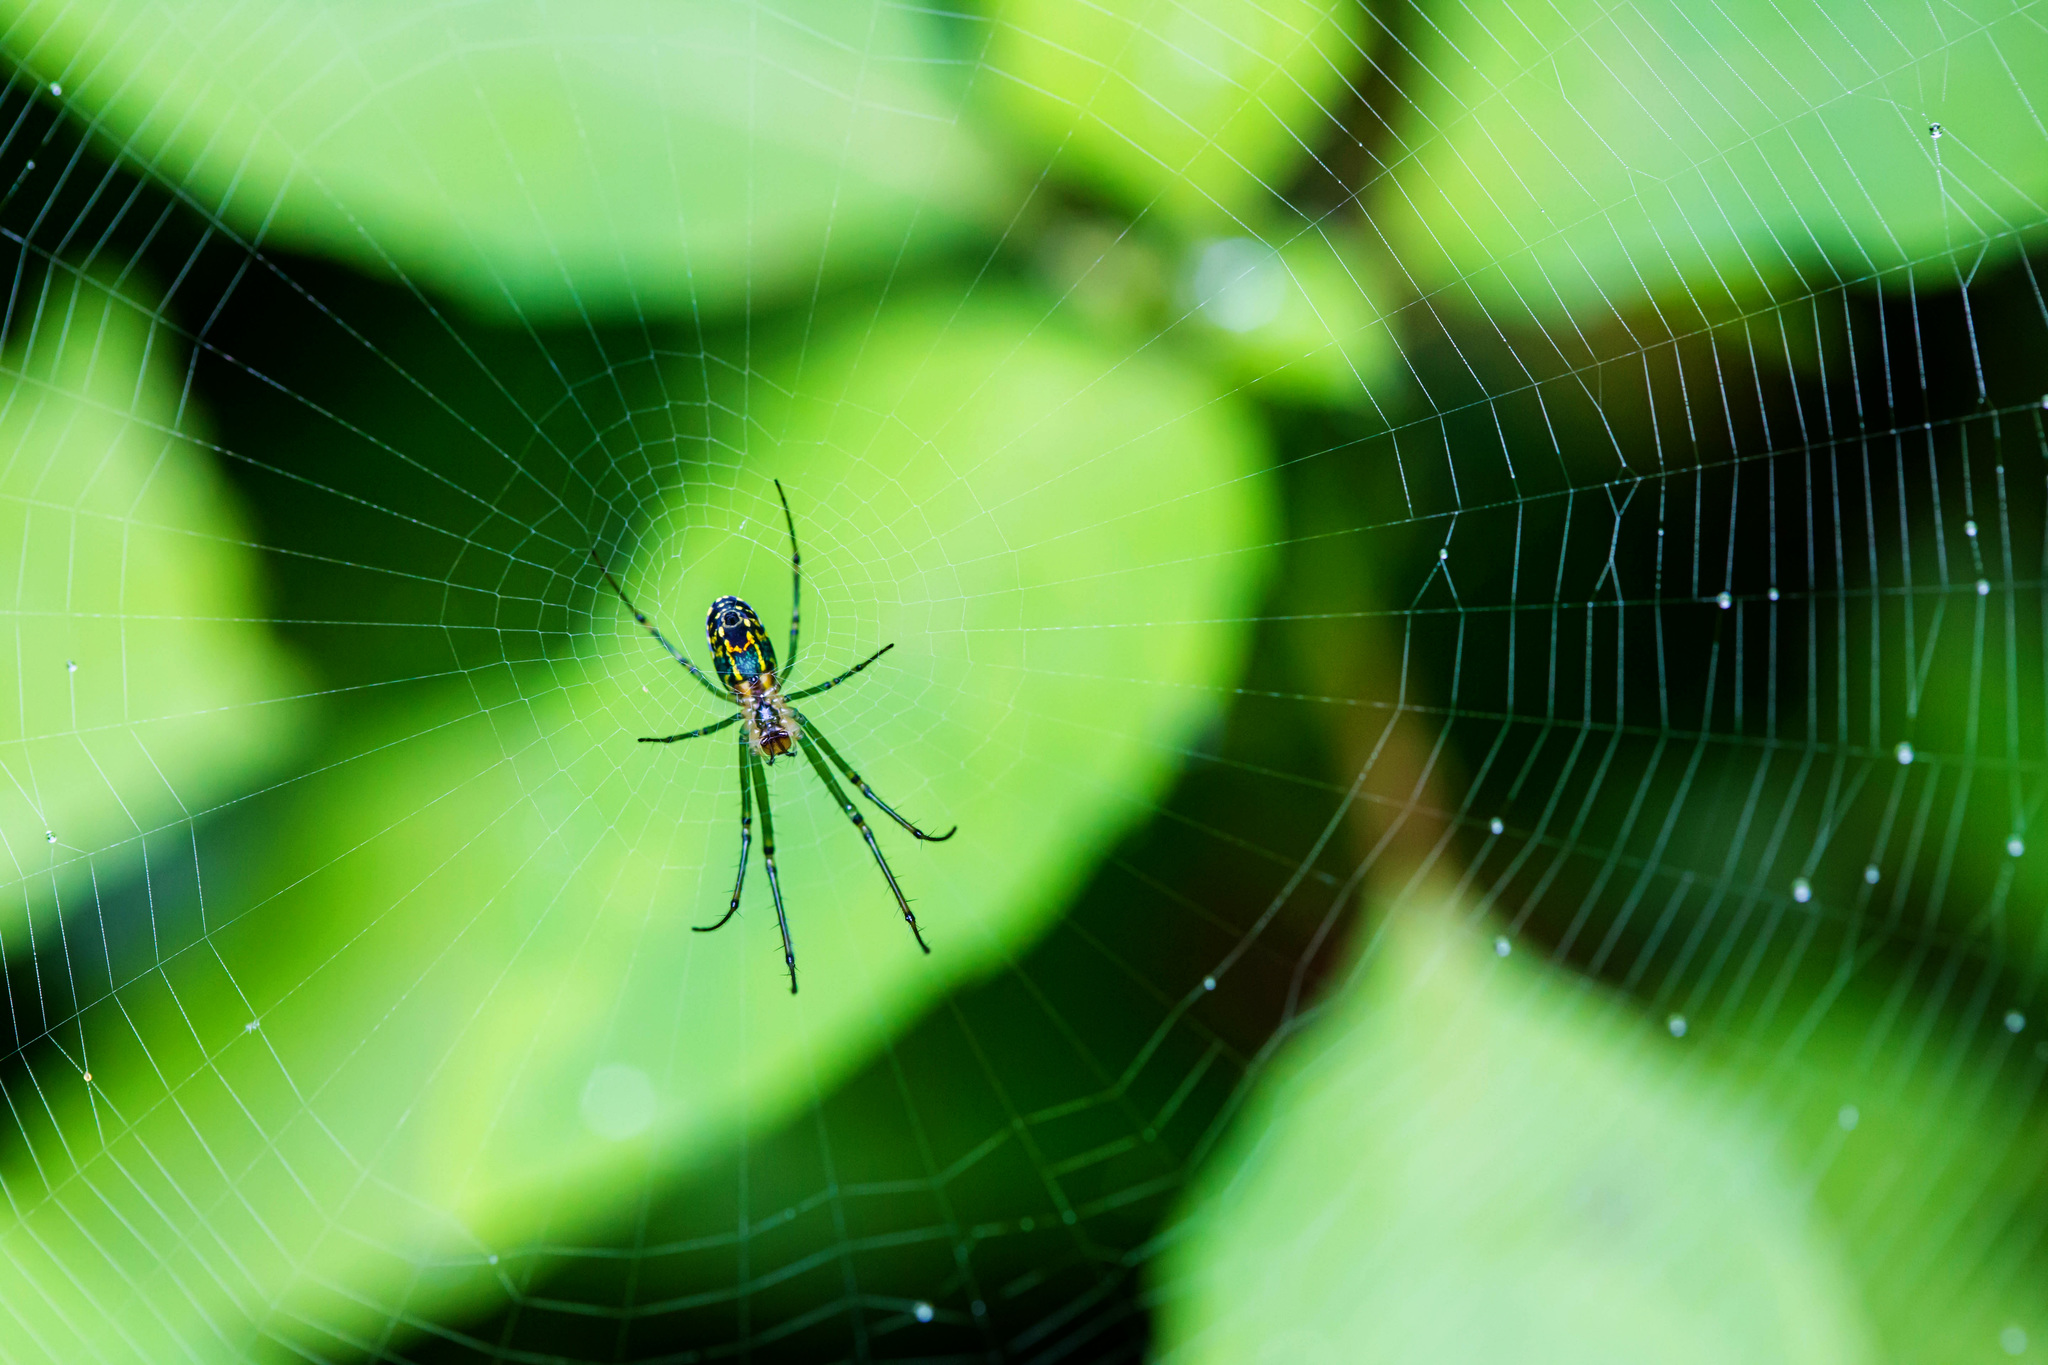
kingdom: Animalia
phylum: Arthropoda
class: Arachnida
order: Araneae
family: Tetragnathidae
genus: Leucauge
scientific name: Leucauge venusta
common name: Longjawed orb weavers
